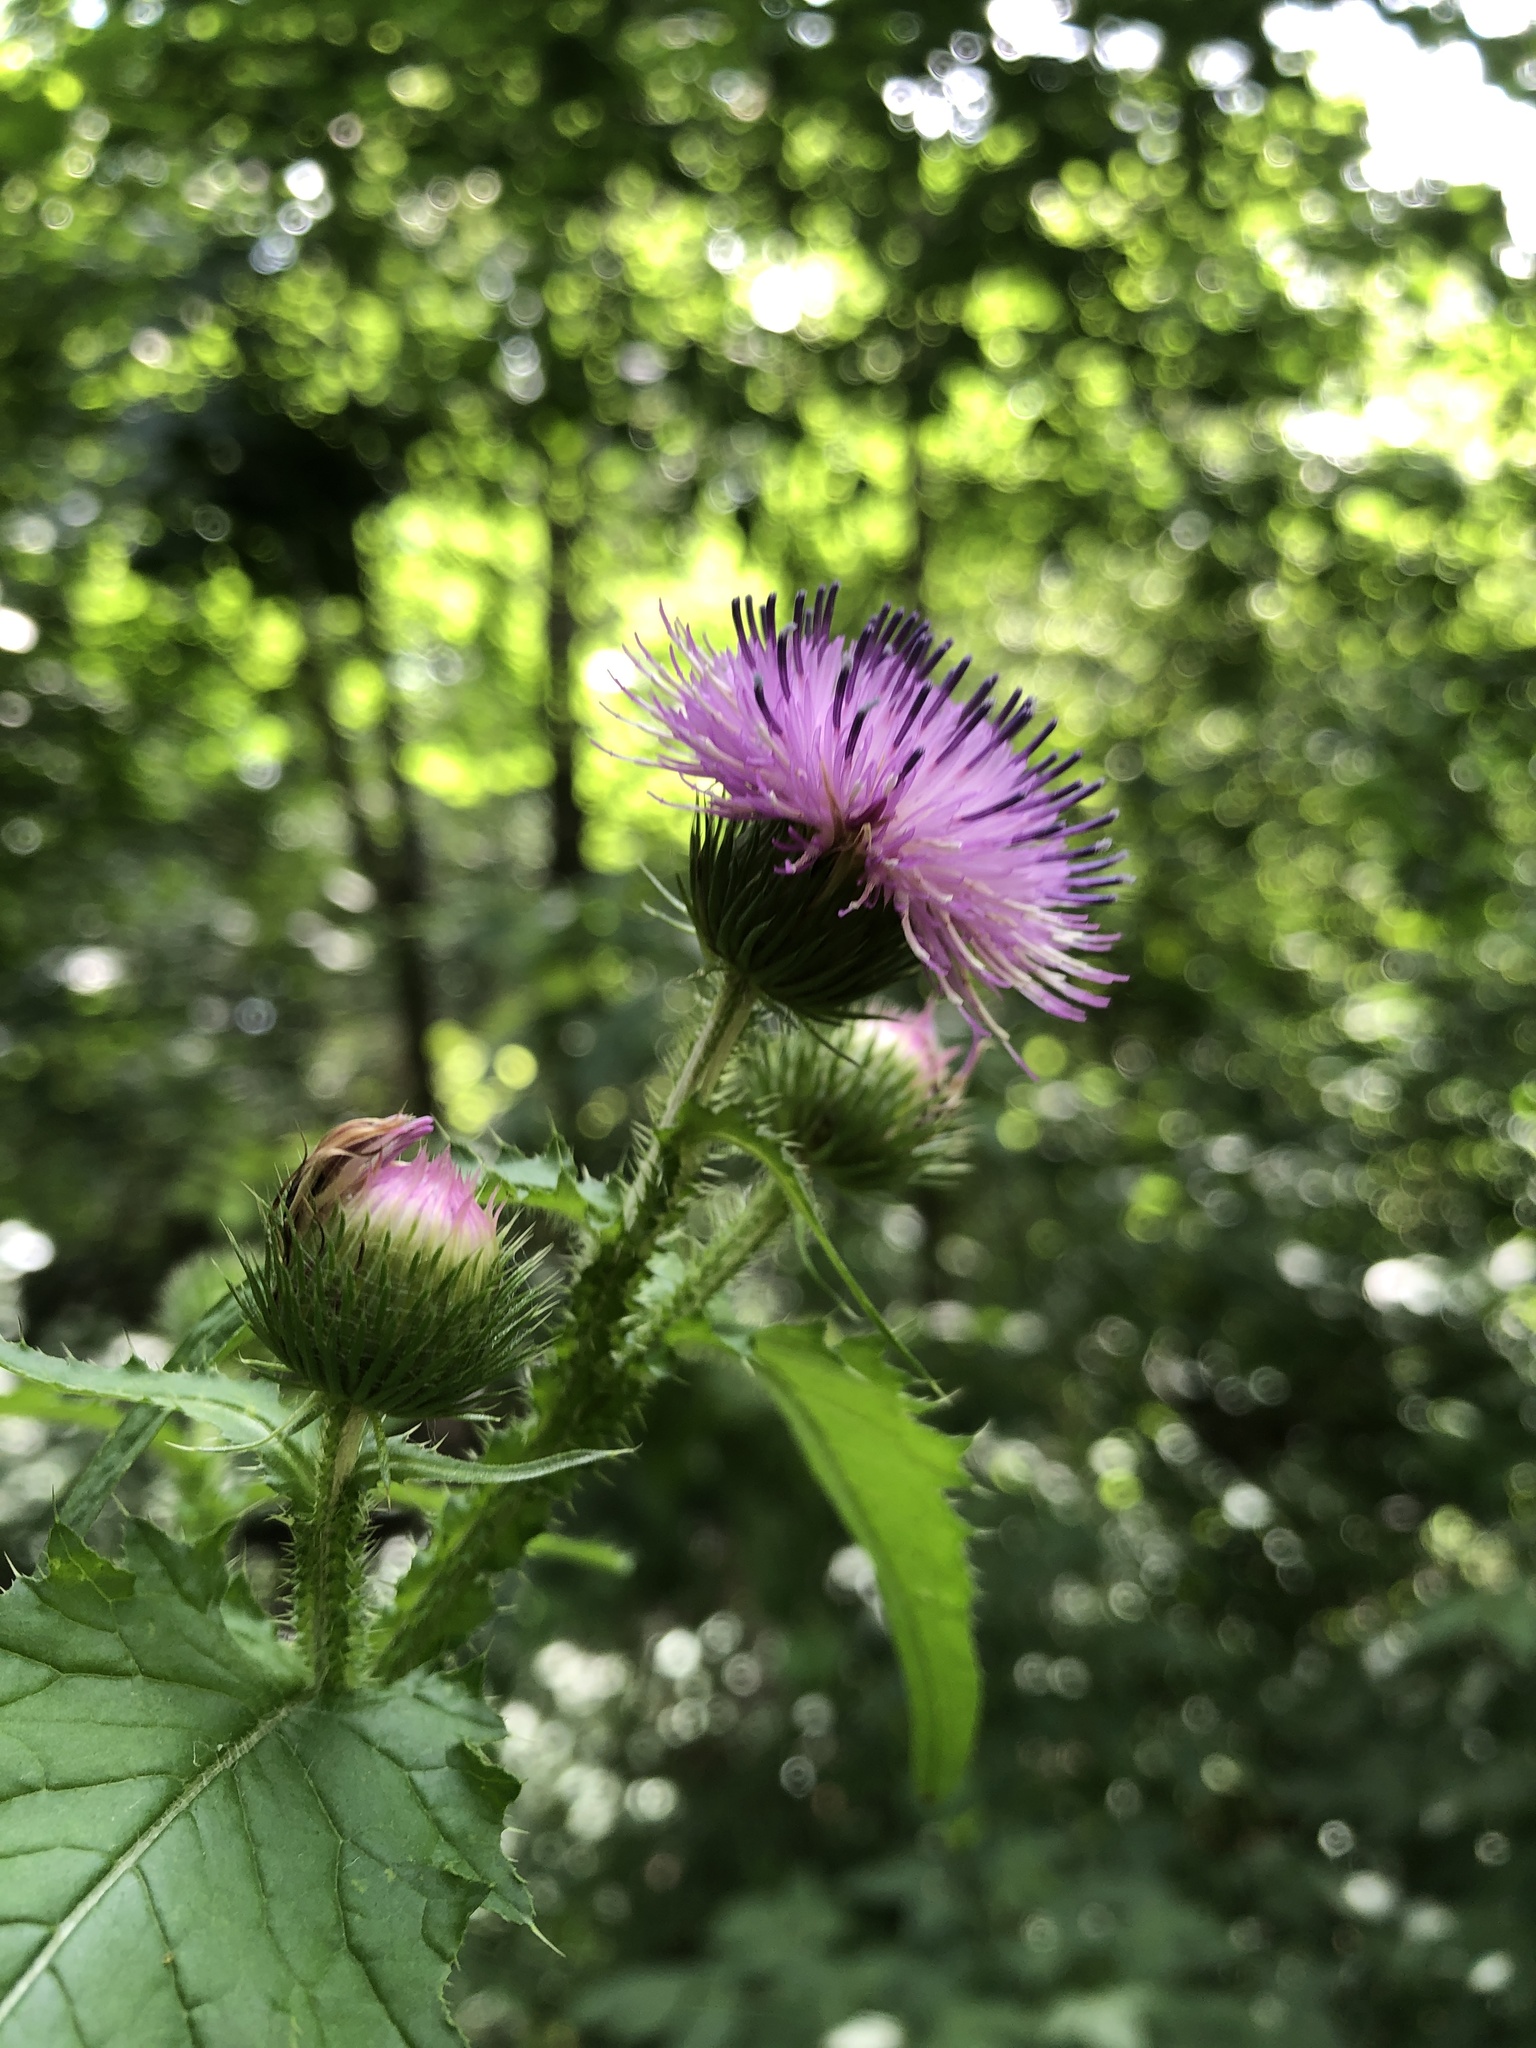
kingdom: Plantae
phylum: Tracheophyta
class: Magnoliopsida
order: Asterales
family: Asteraceae
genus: Carduus
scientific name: Carduus crispus
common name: Welted thistle
